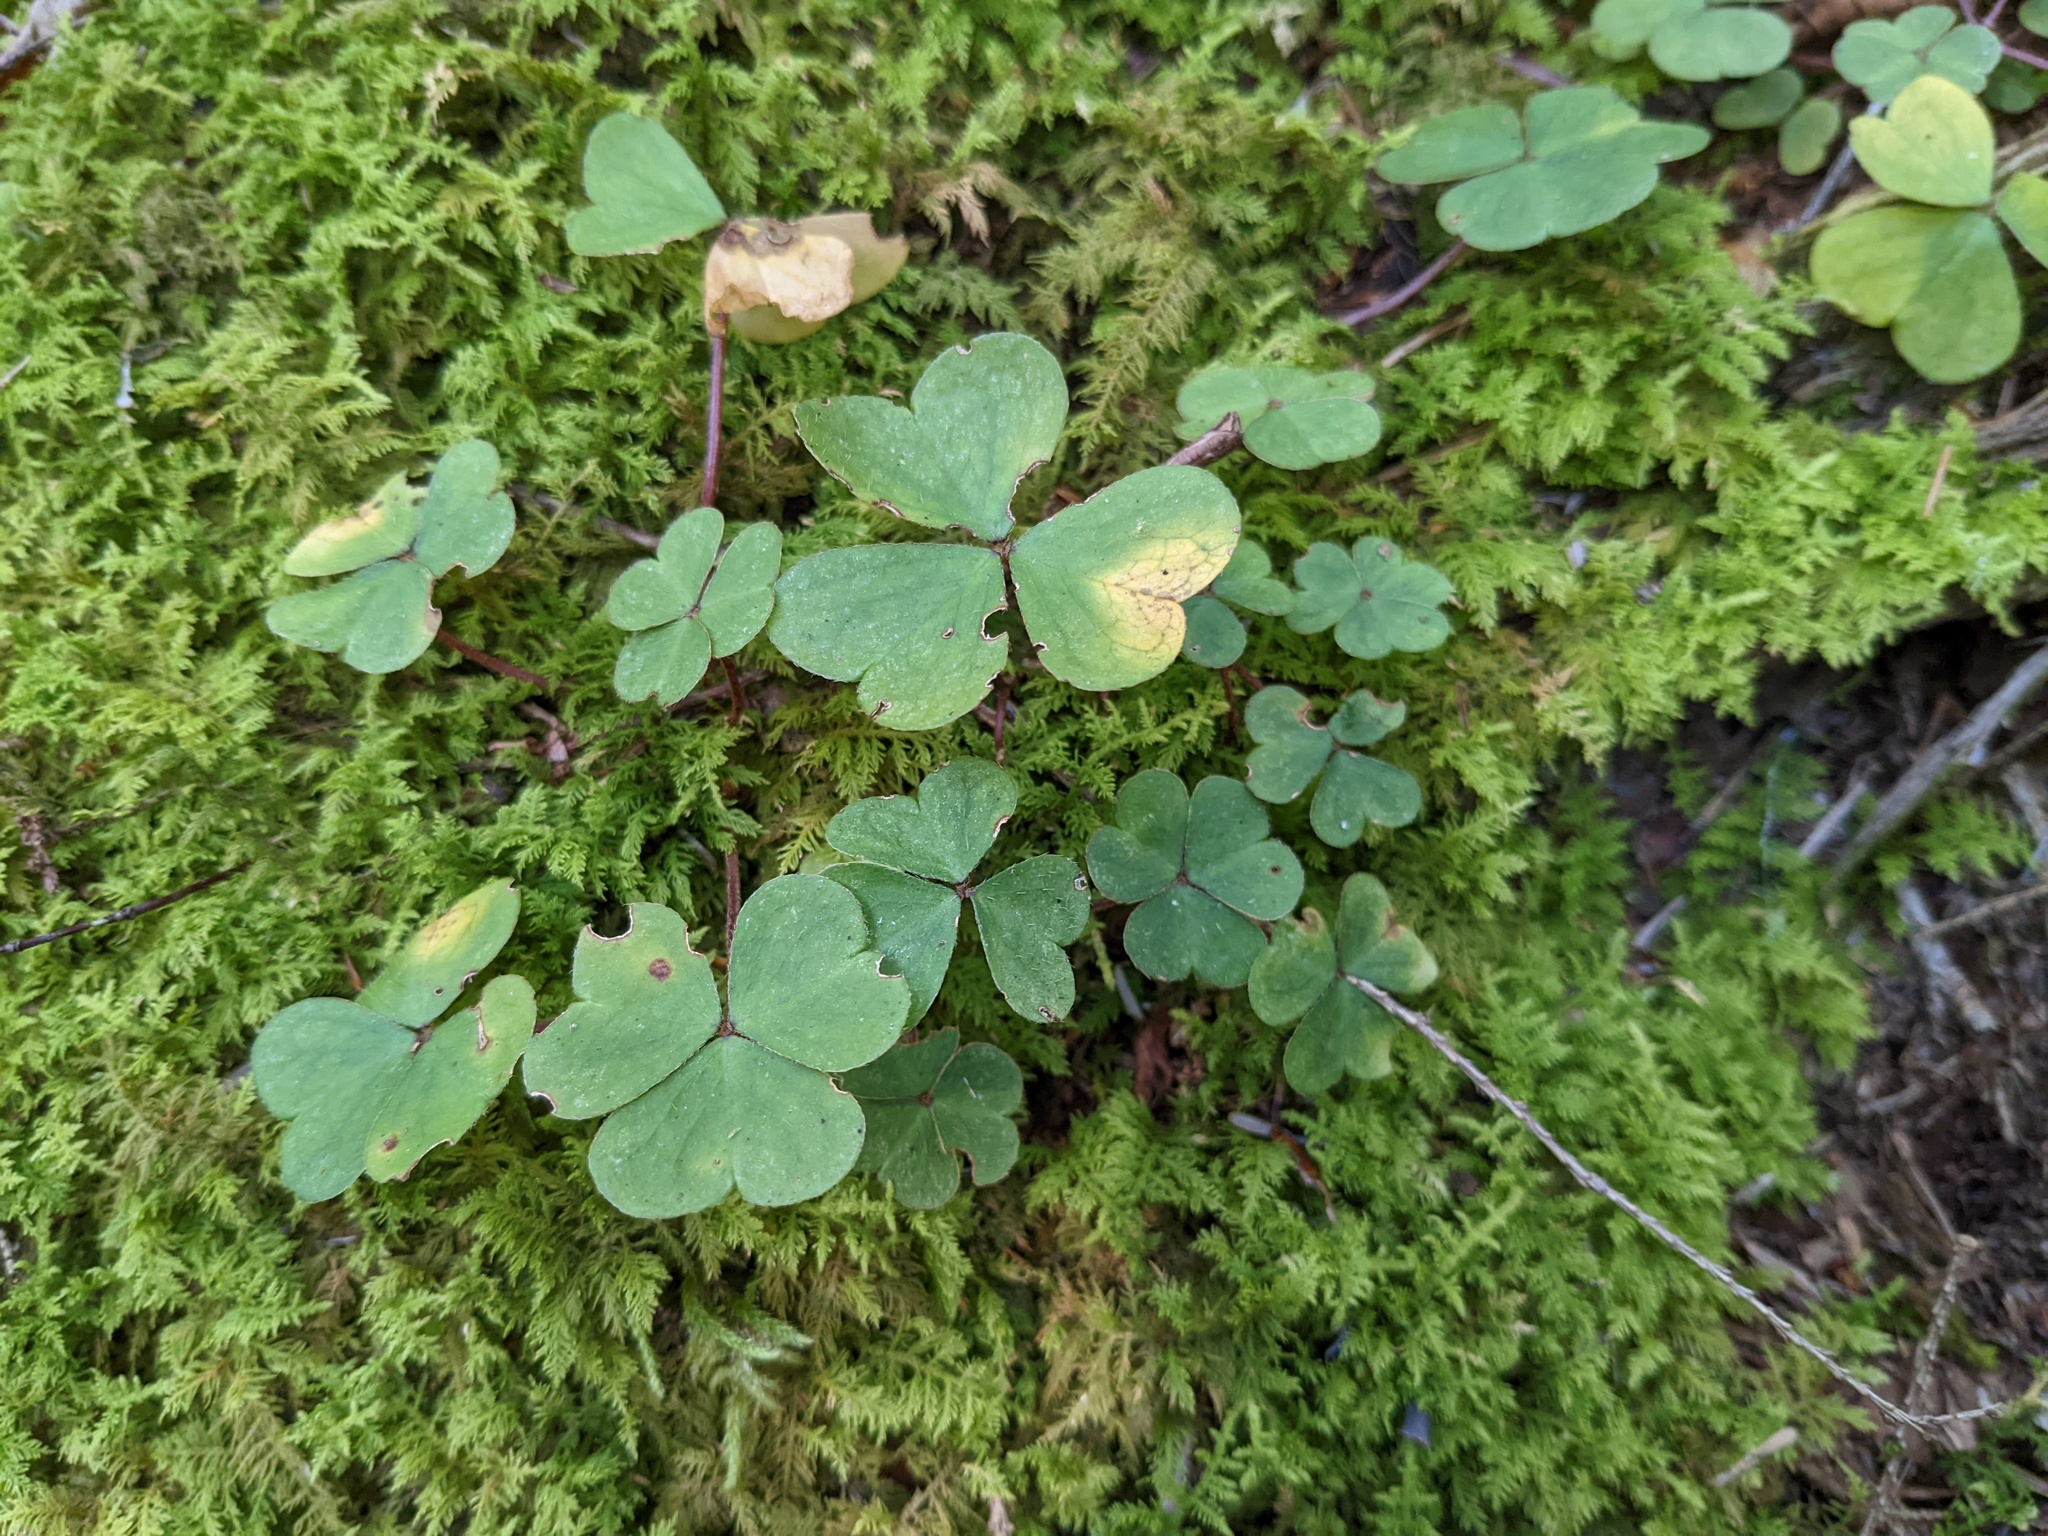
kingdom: Plantae
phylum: Tracheophyta
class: Magnoliopsida
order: Oxalidales
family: Oxalidaceae
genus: Oxalis
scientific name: Oxalis montana
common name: American wood-sorrel
